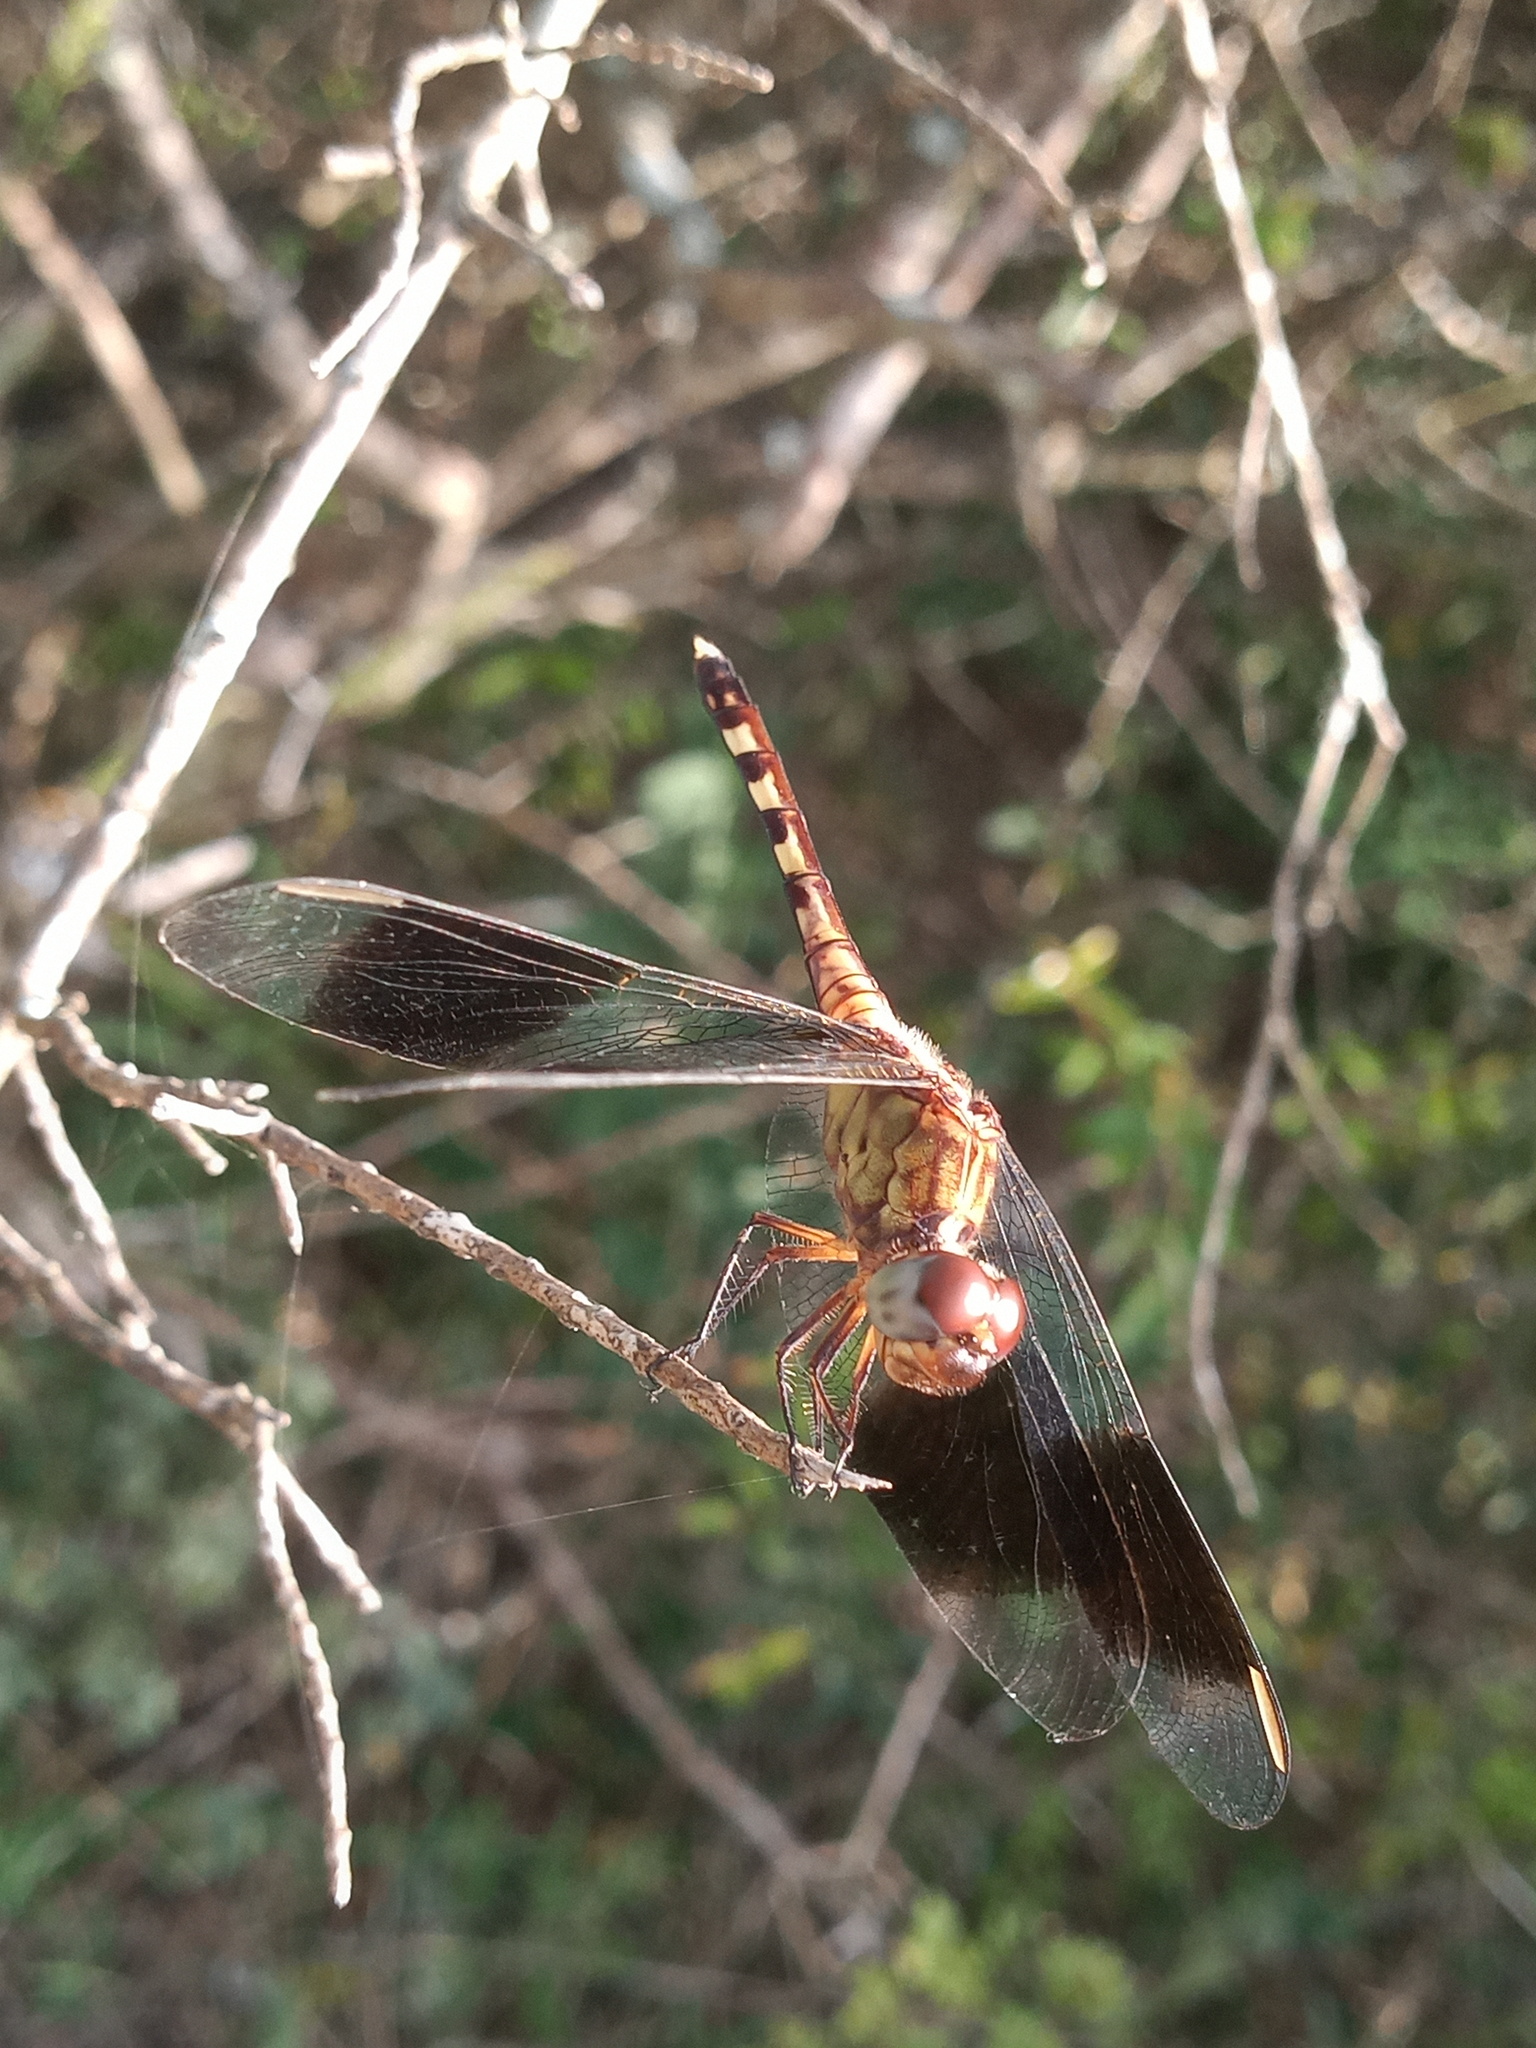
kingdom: Animalia
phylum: Arthropoda
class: Insecta
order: Odonata
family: Libellulidae
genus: Erythrodiplax
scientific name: Erythrodiplax umbrata
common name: Band-winged dragonlet
